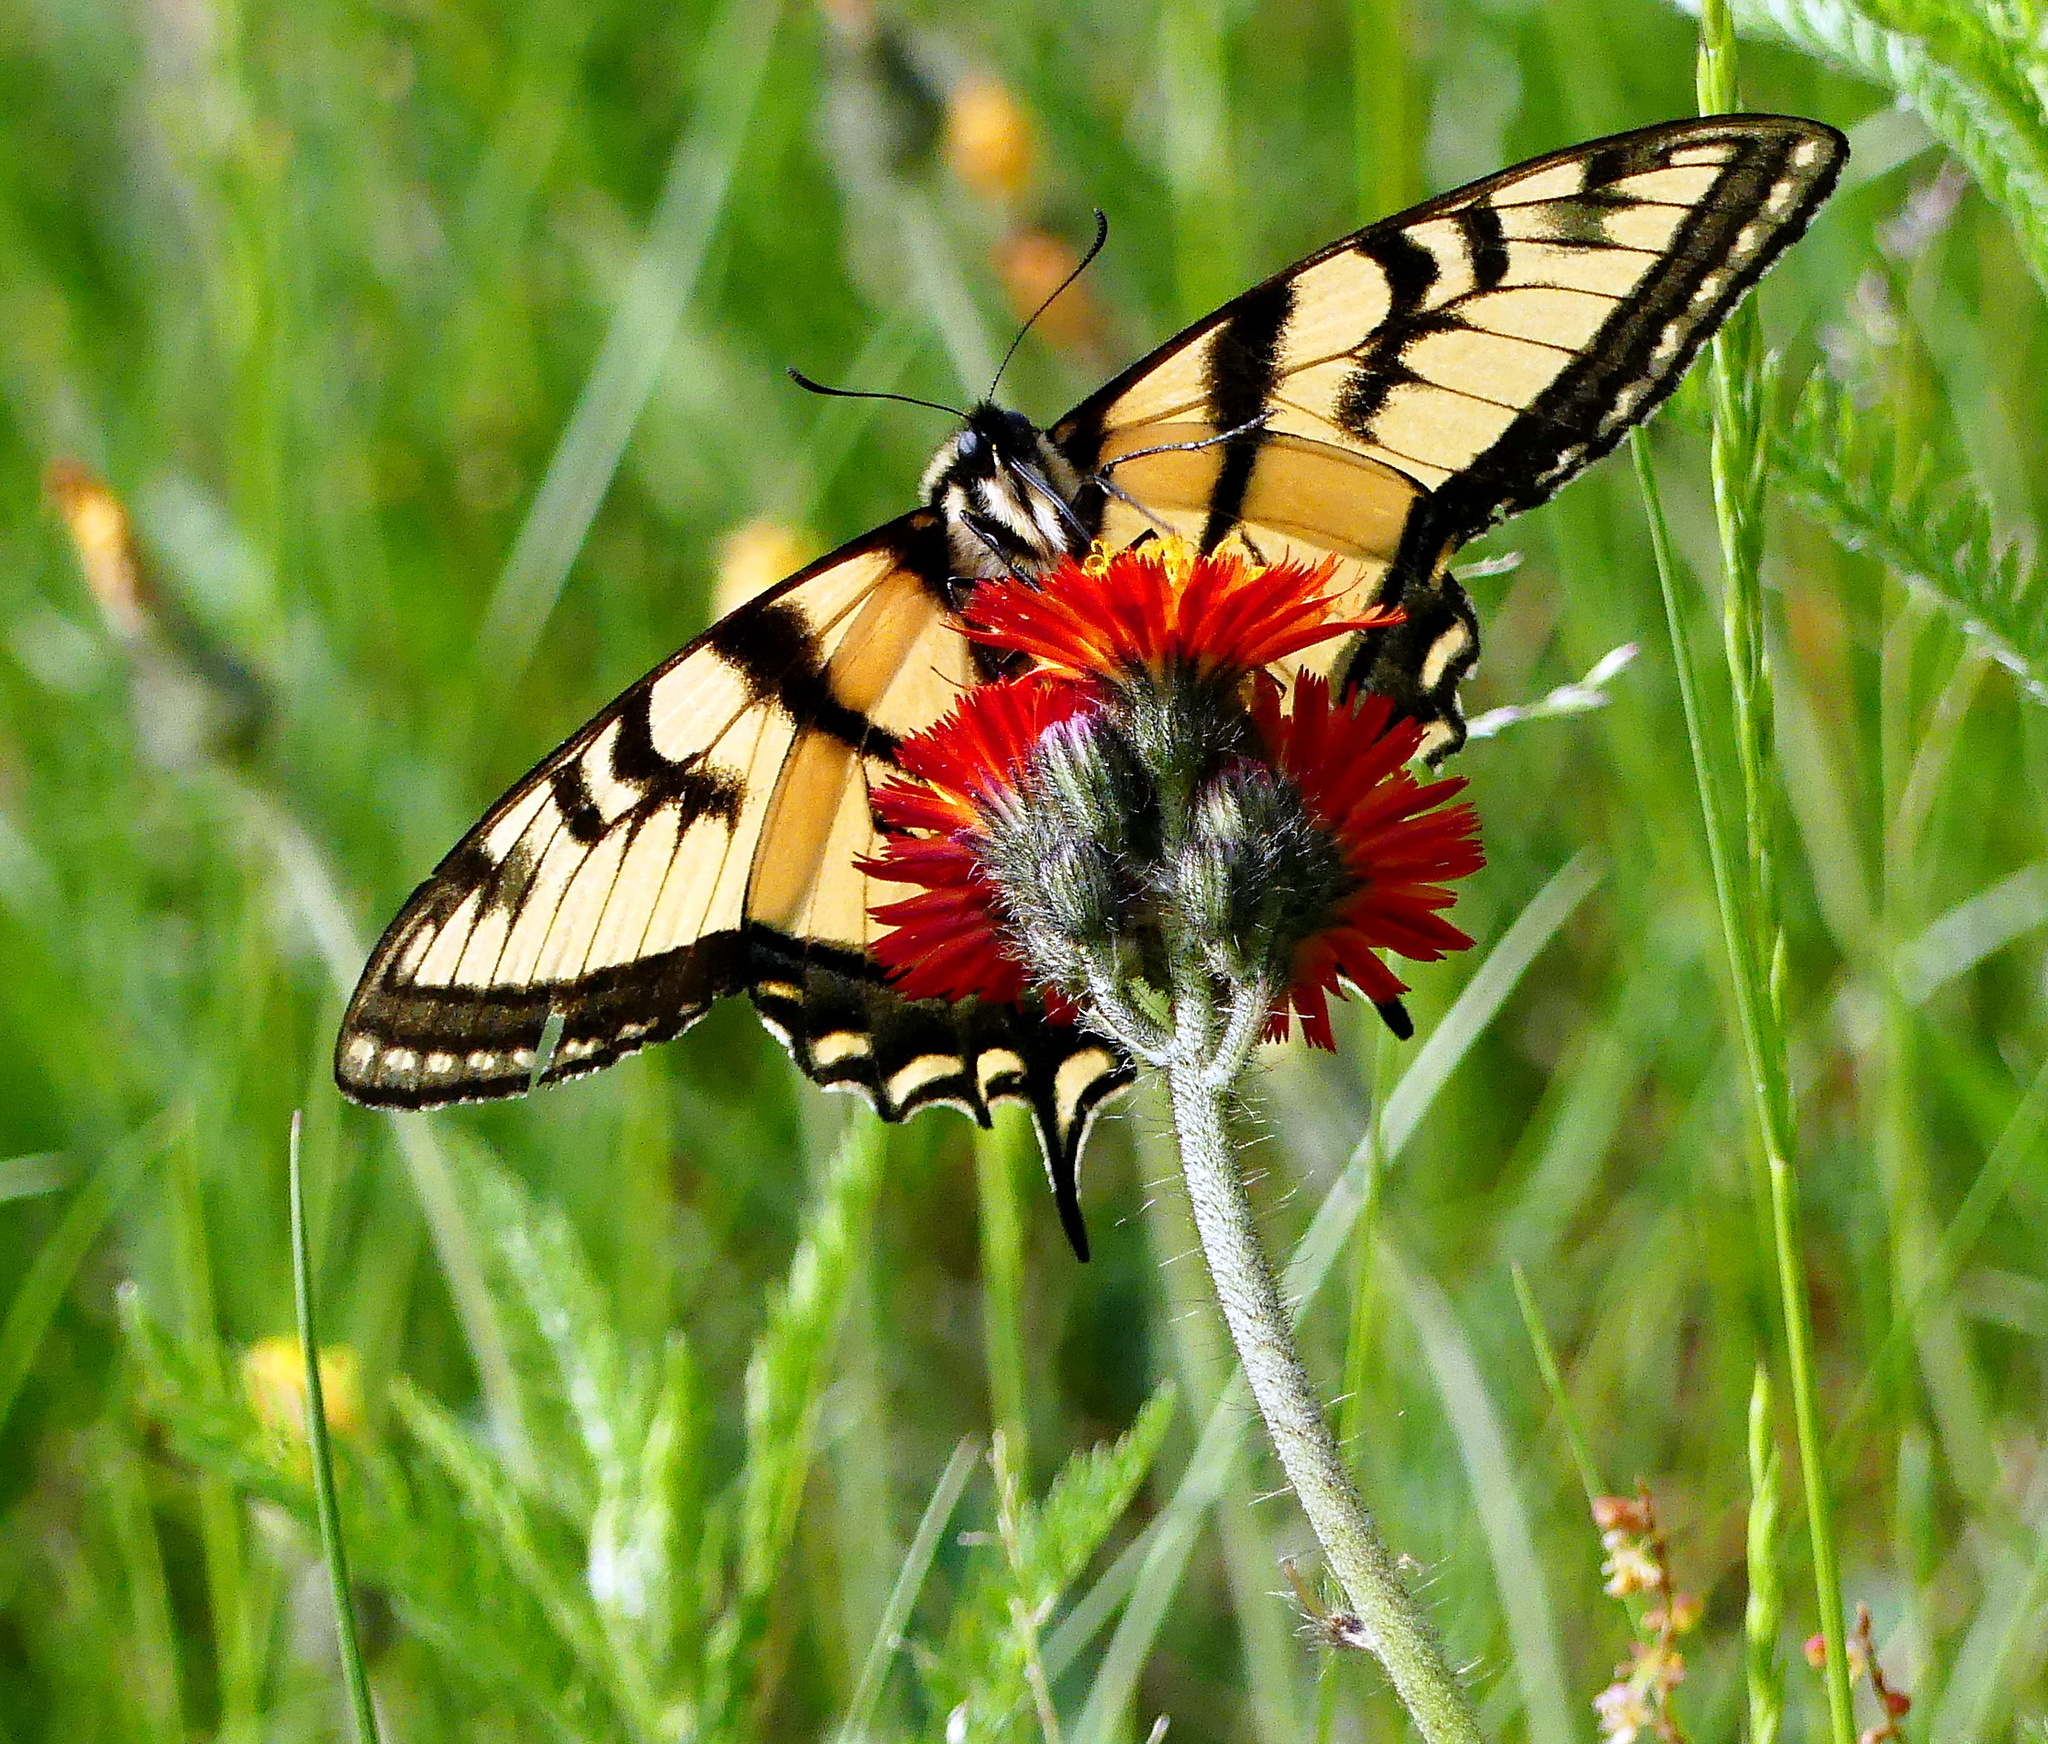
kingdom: Animalia
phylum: Arthropoda
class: Insecta
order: Lepidoptera
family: Papilionidae
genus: Papilio
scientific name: Papilio canadensis
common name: Canadian tiger swallowtail
